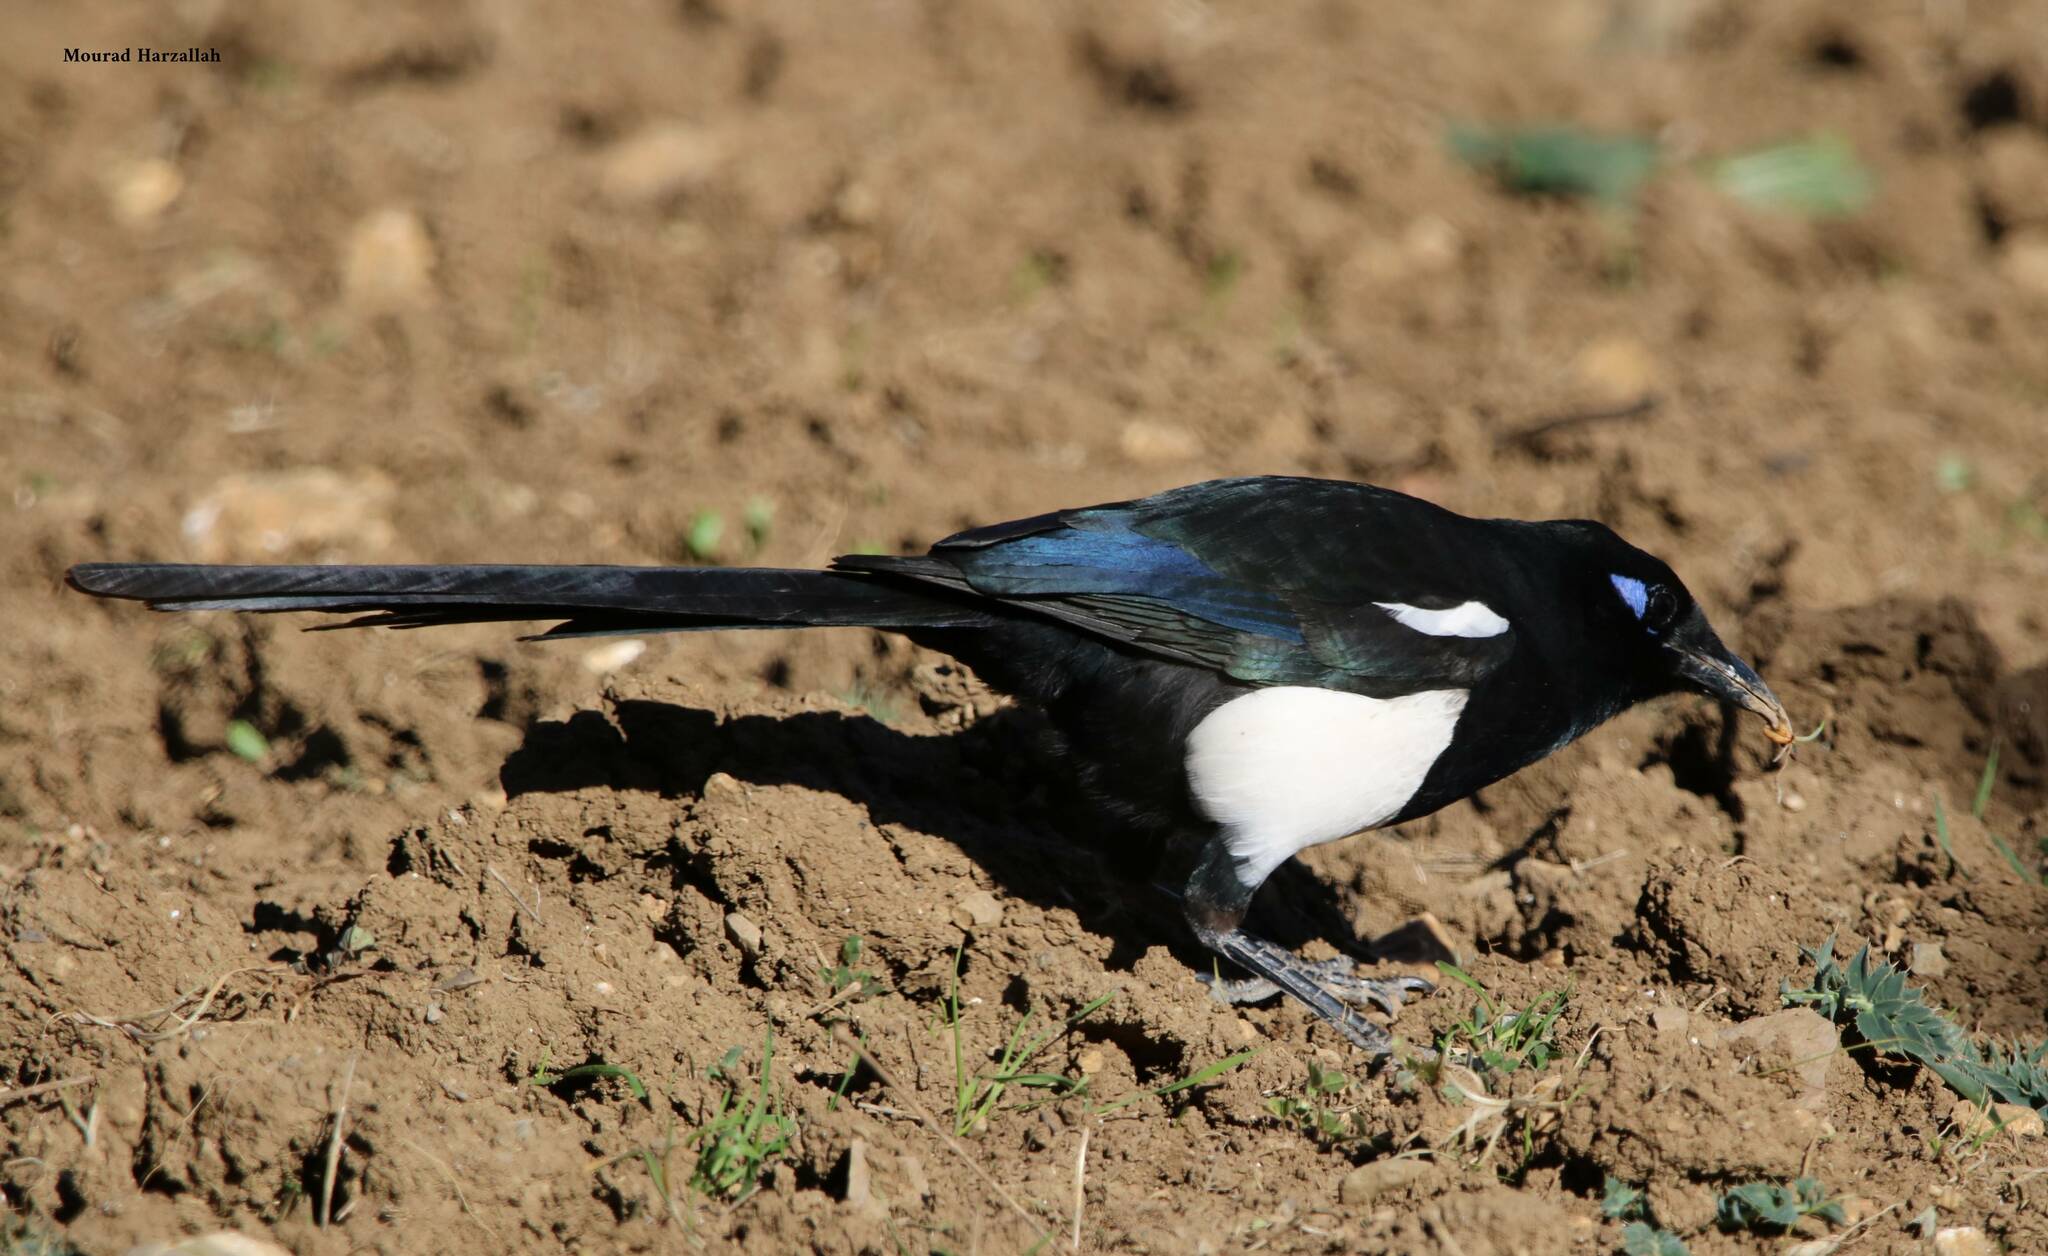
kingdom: Animalia
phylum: Chordata
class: Aves
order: Passeriformes
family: Corvidae
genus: Pica
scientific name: Pica mauritanica
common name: Maghreb magpie
